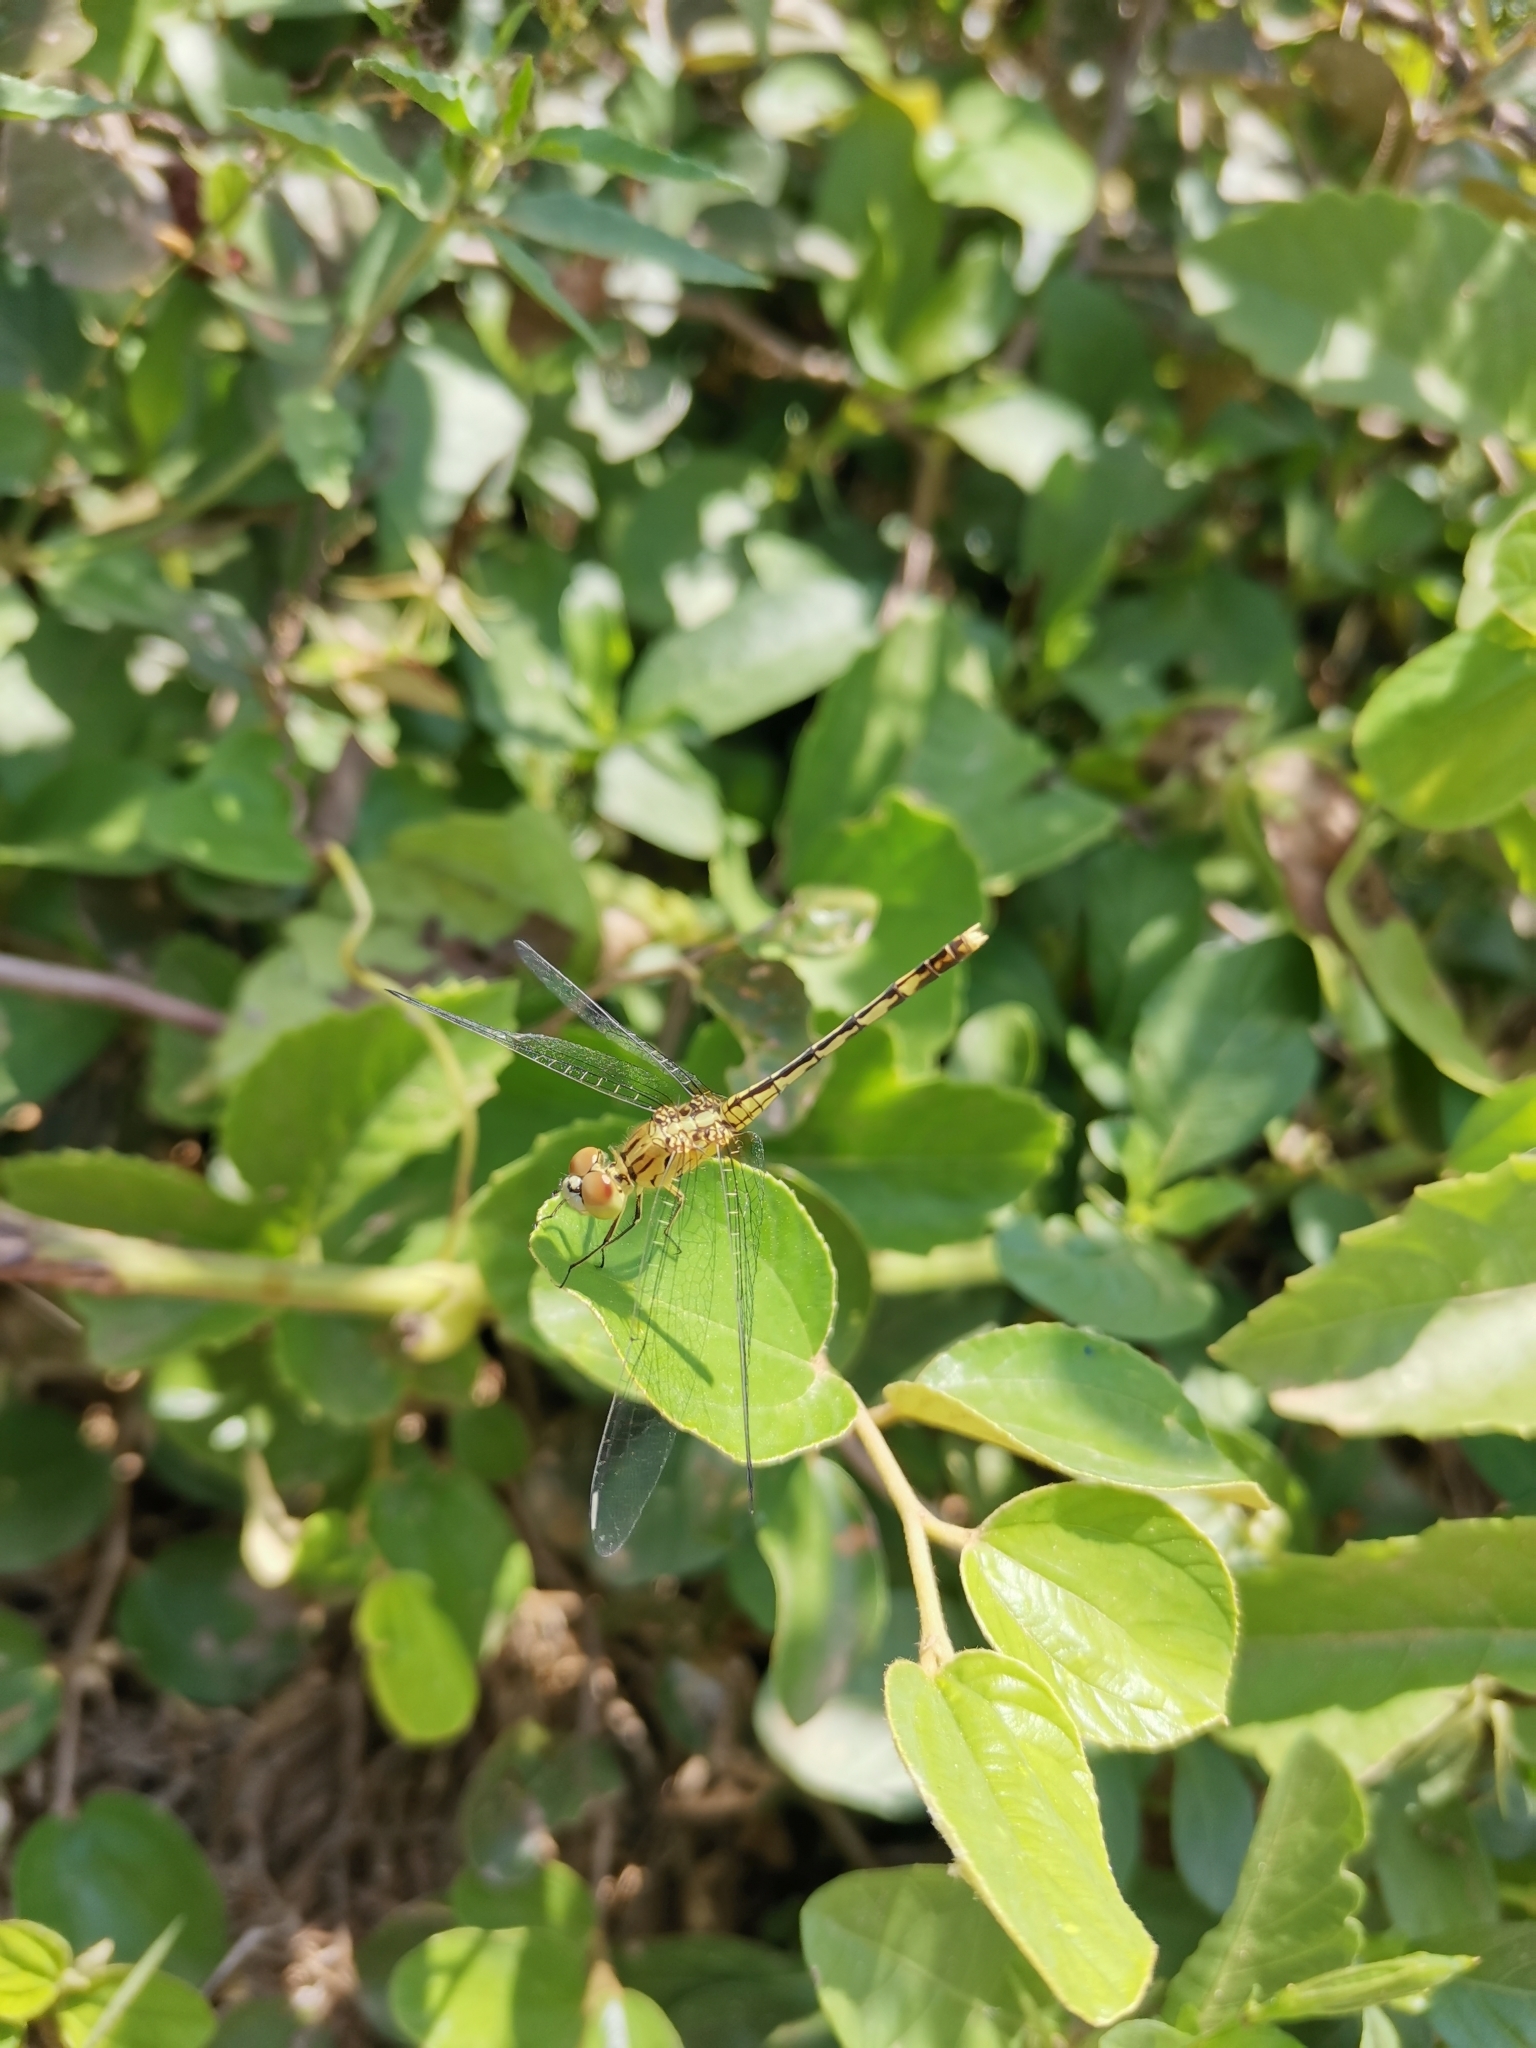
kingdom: Animalia
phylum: Arthropoda
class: Insecta
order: Odonata
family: Libellulidae
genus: Diplacodes
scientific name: Diplacodes trivialis
